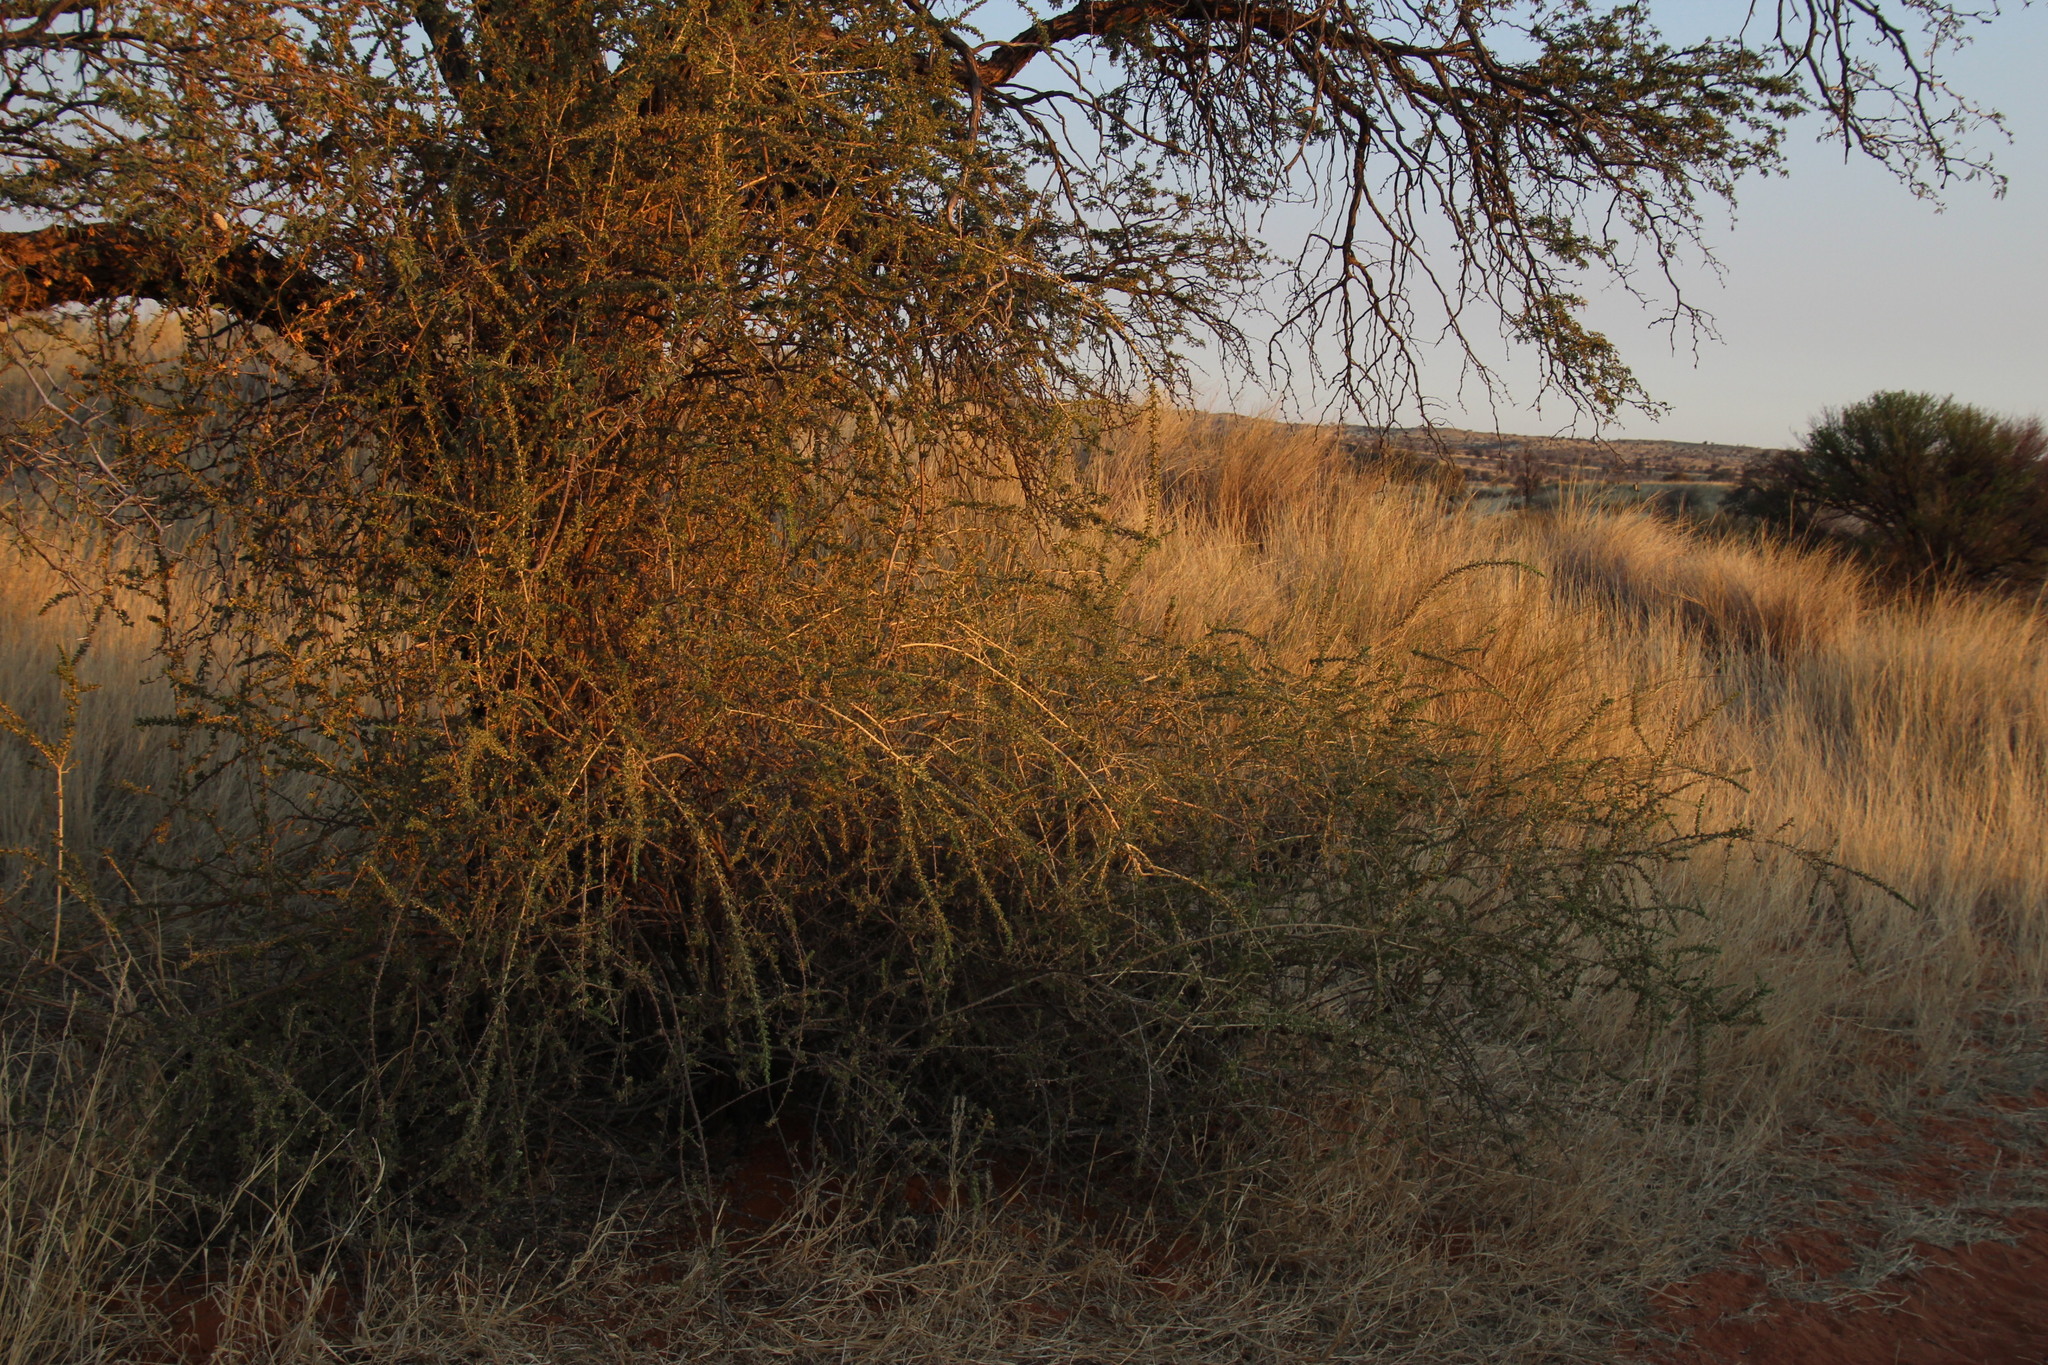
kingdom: Plantae
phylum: Tracheophyta
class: Magnoliopsida
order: Solanales
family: Solanaceae
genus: Lycium
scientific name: Lycium hirsutum
